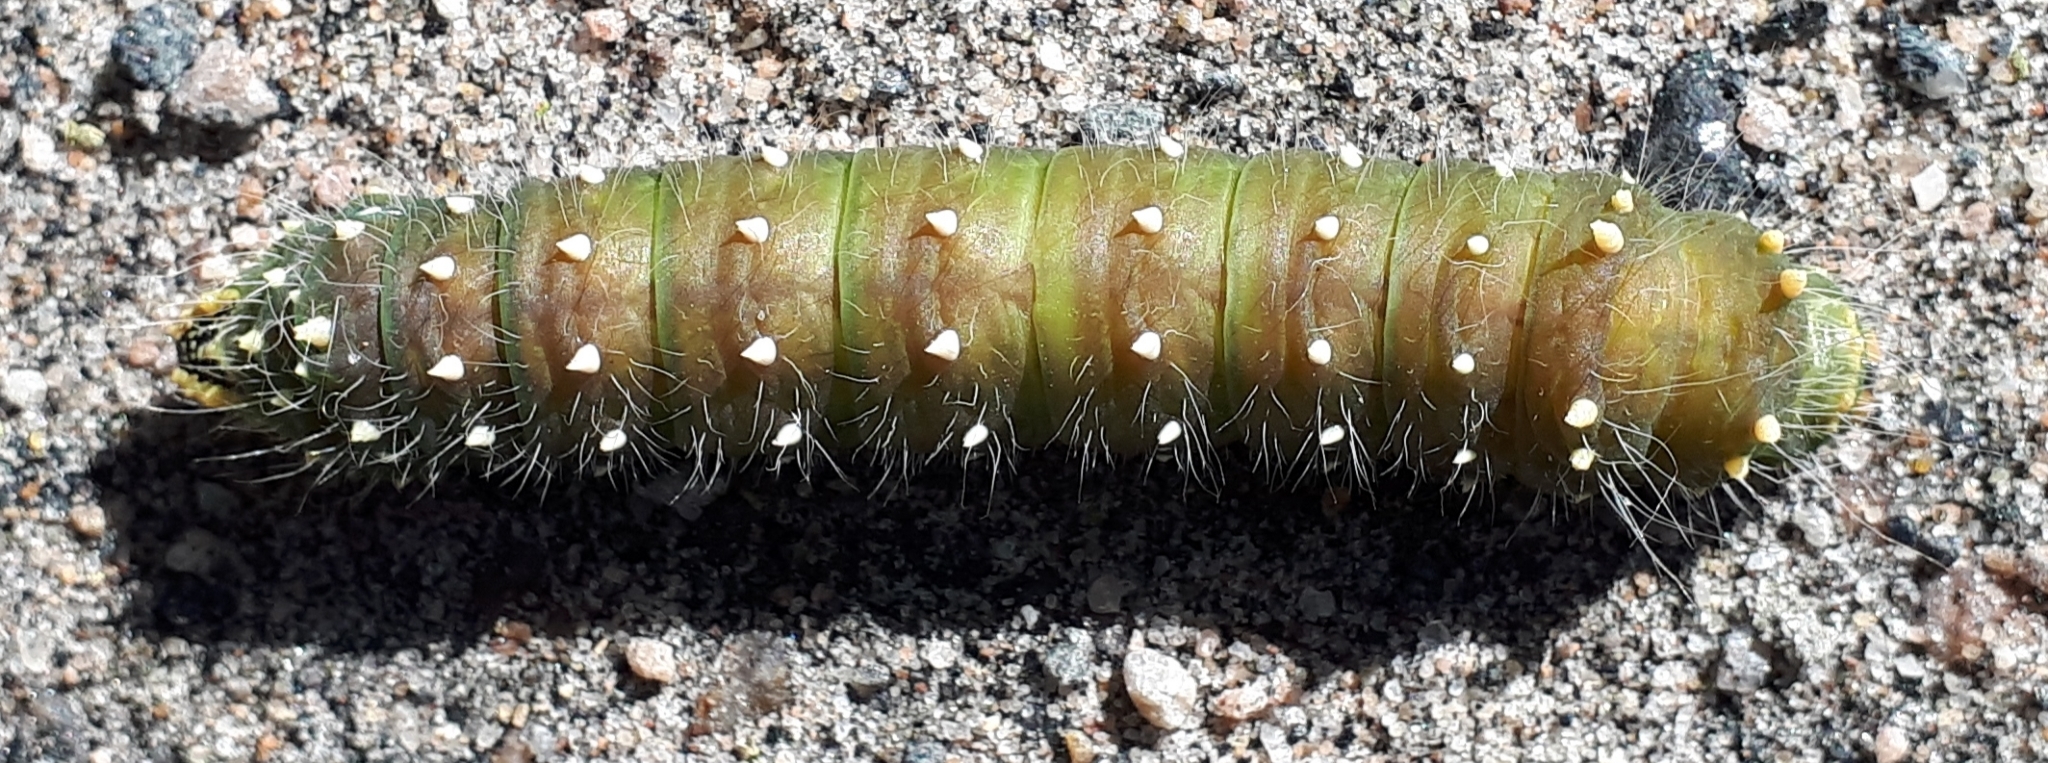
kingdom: Animalia
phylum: Arthropoda
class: Insecta
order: Lepidoptera
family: Saturniidae
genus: Eacles
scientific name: Eacles
